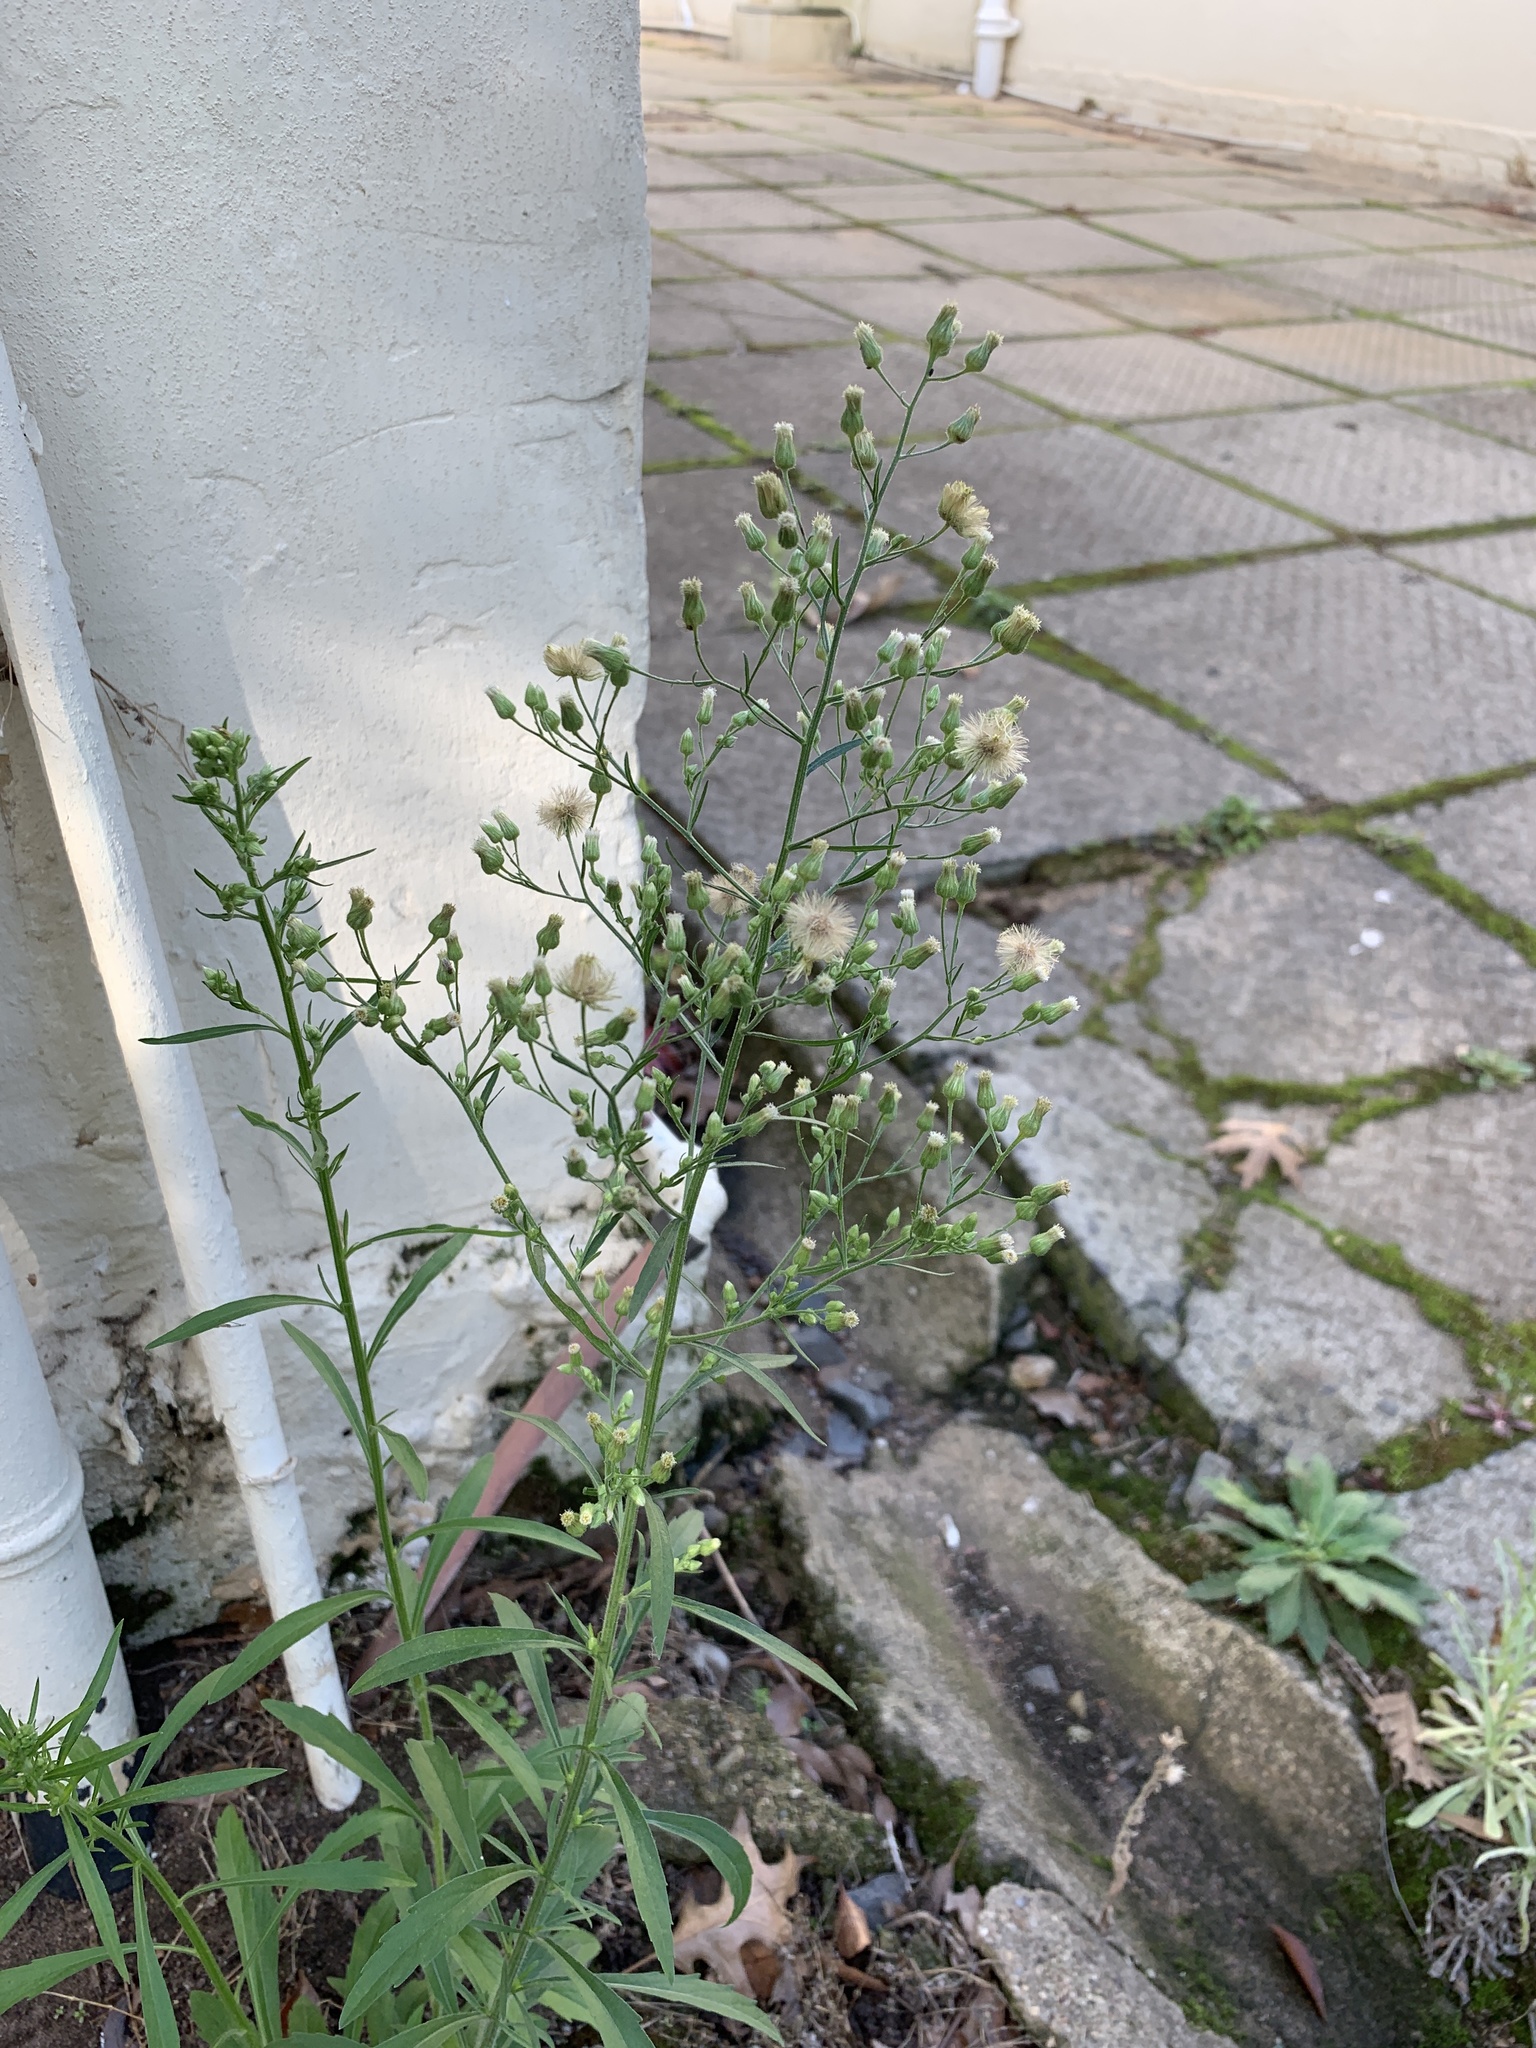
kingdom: Plantae
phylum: Tracheophyta
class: Magnoliopsida
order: Asterales
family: Asteraceae
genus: Erigeron
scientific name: Erigeron sumatrensis
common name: Daisy
